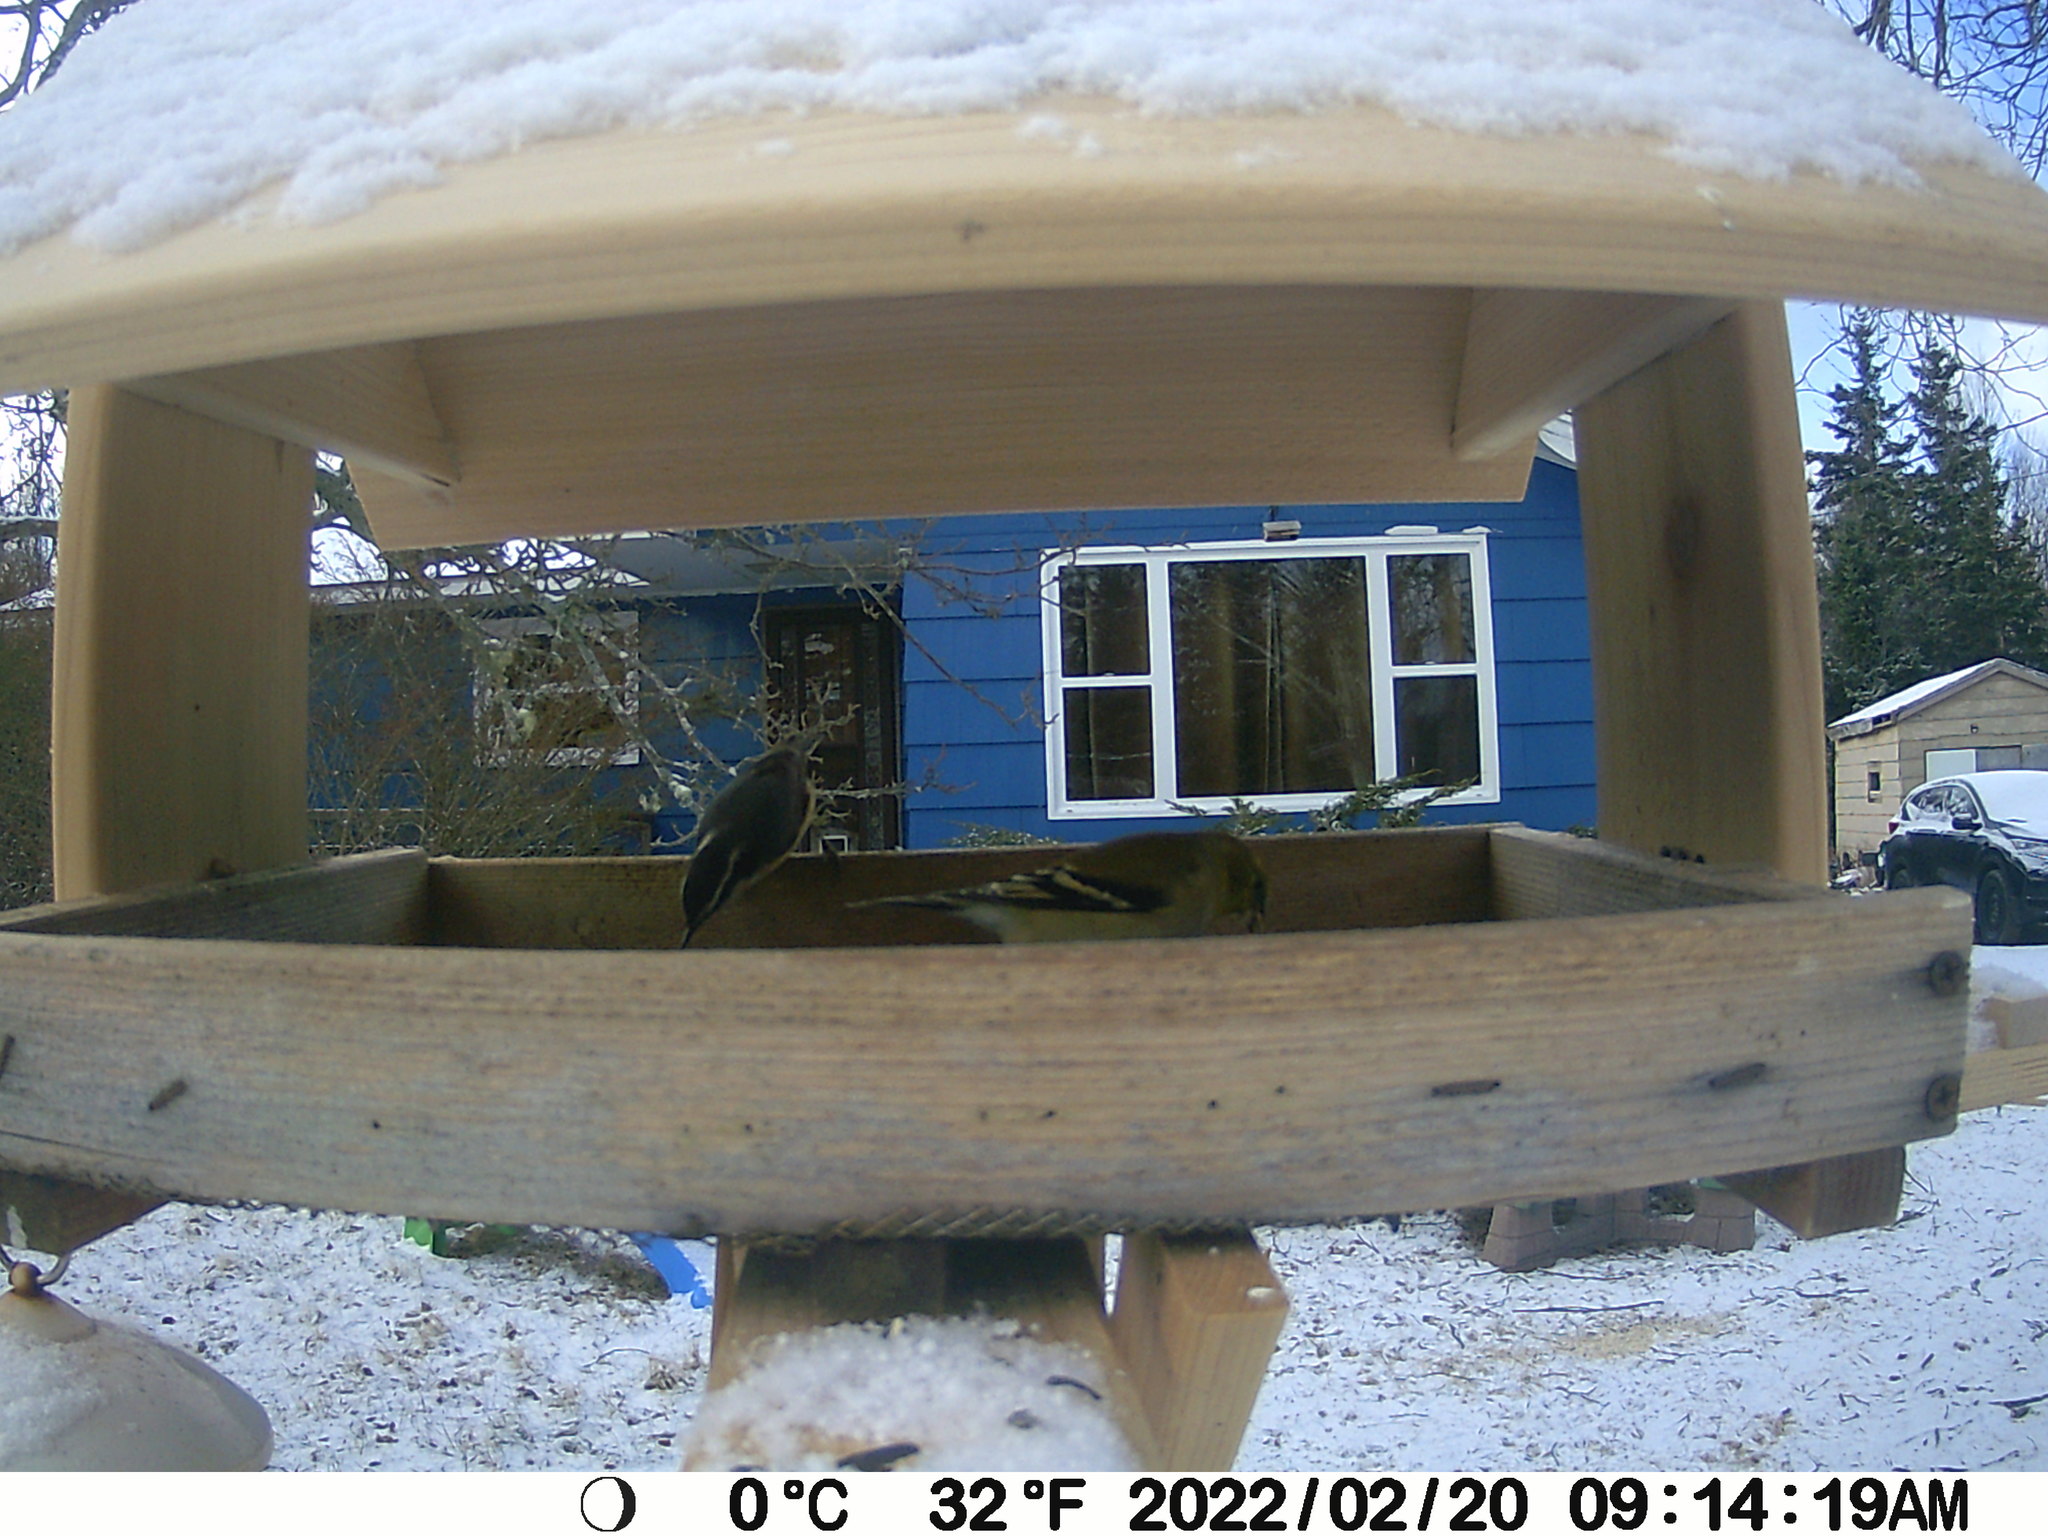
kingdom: Animalia
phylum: Chordata
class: Aves
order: Passeriformes
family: Sittidae
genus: Sitta
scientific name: Sitta canadensis
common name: Red-breasted nuthatch
